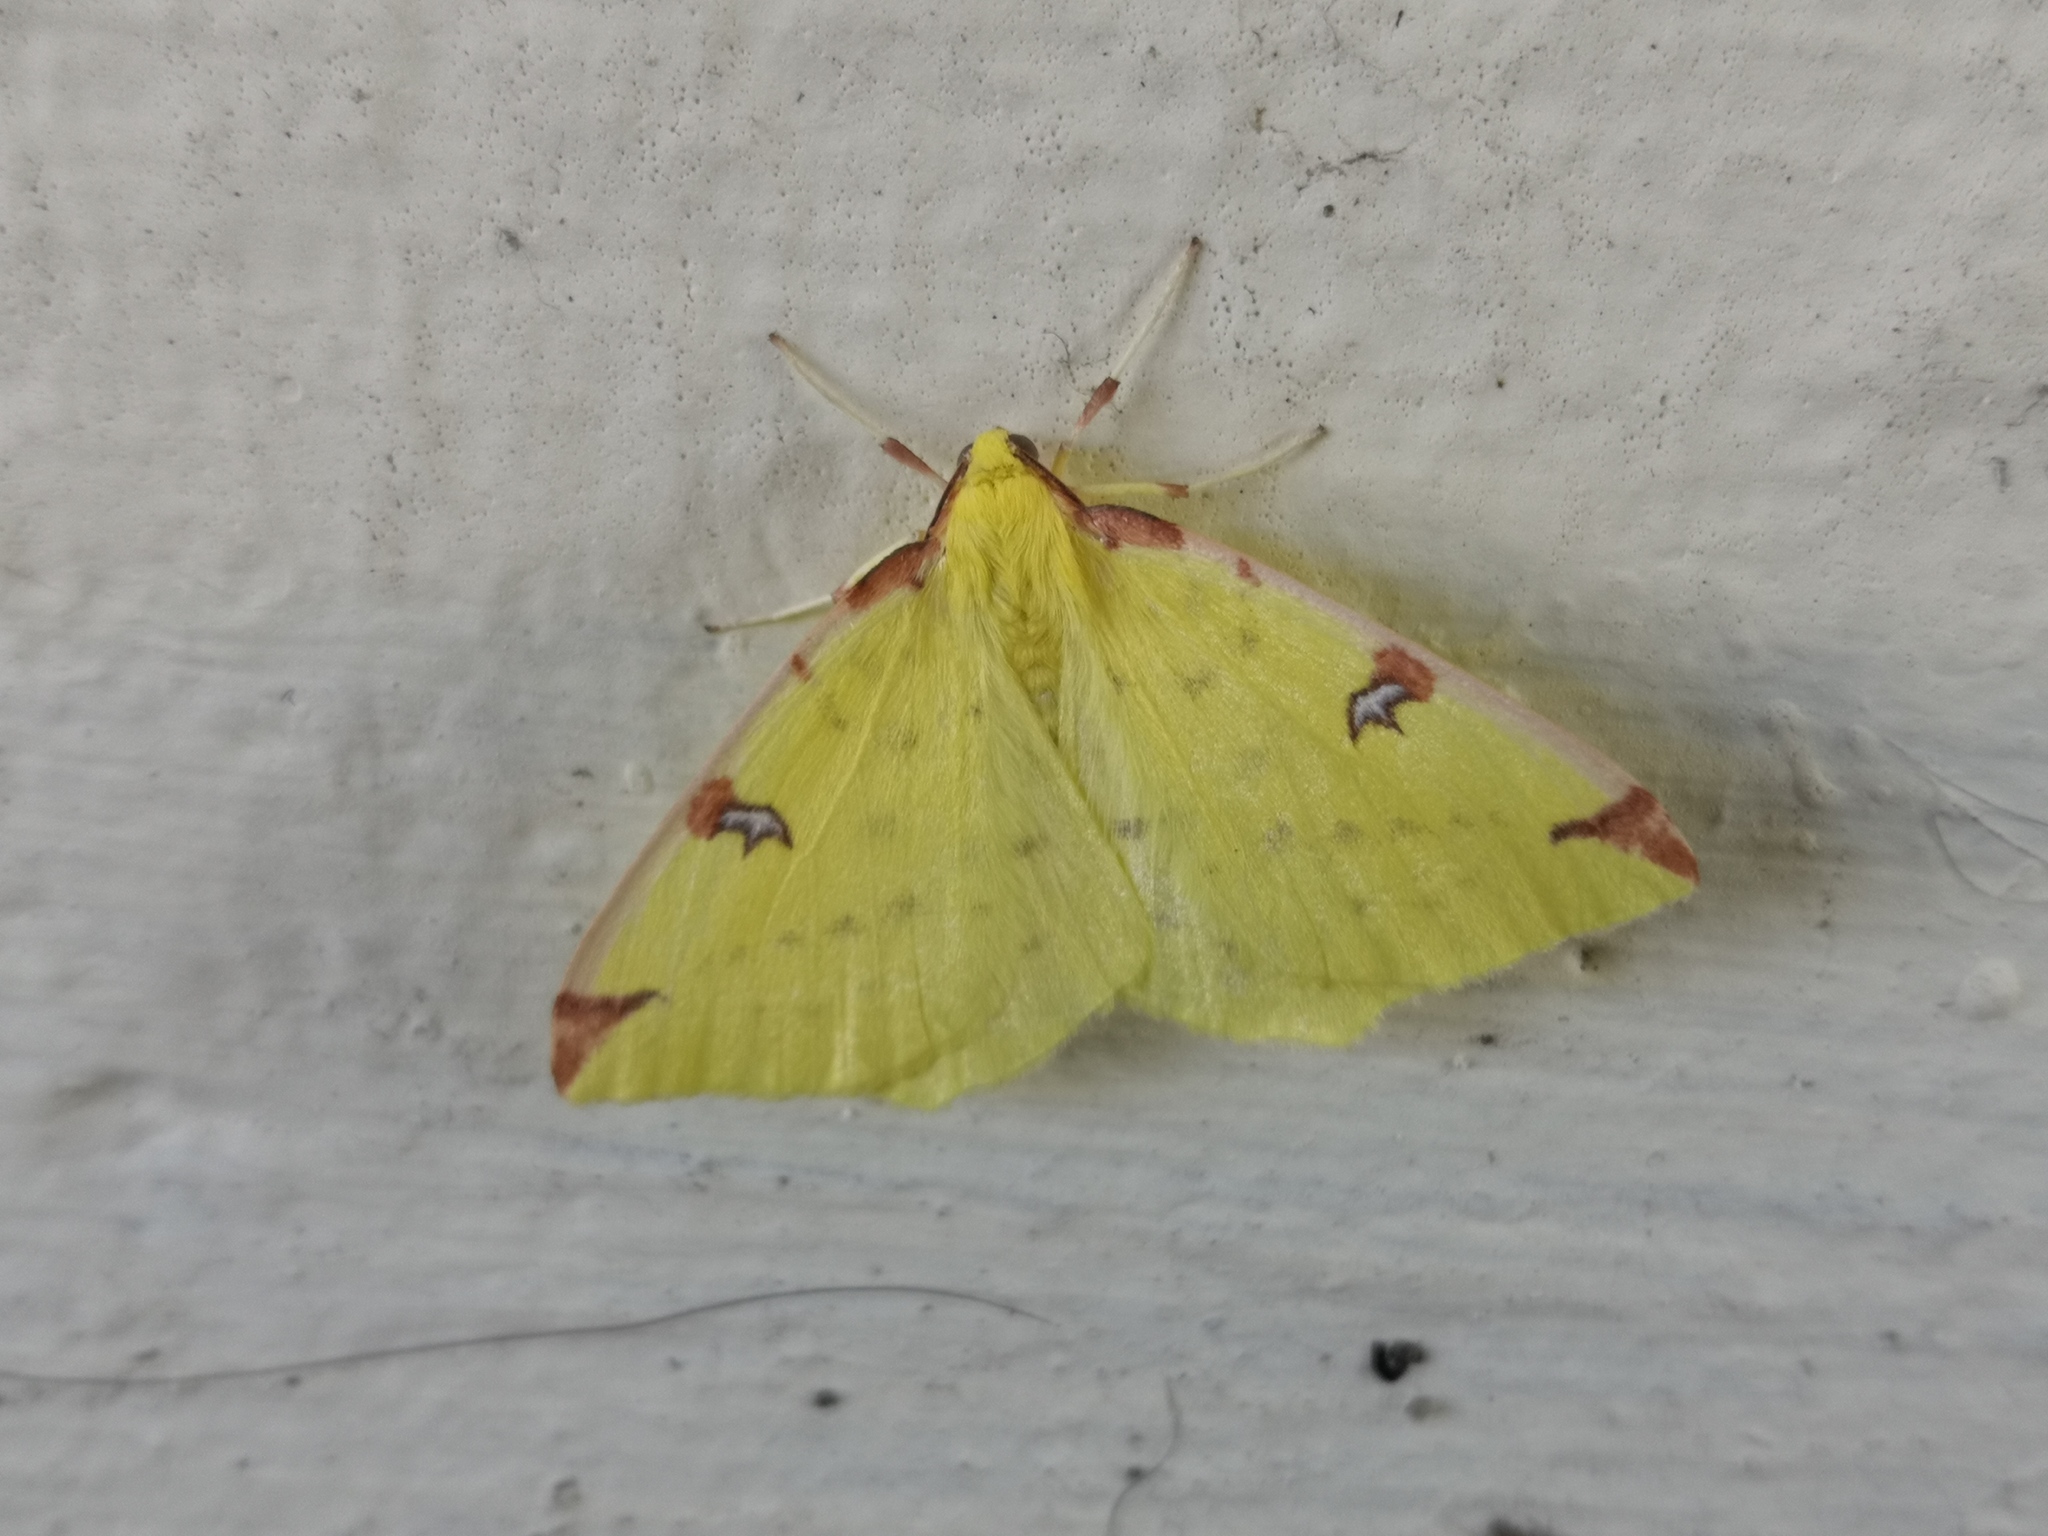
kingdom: Animalia
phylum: Arthropoda
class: Insecta
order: Lepidoptera
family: Geometridae
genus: Opisthograptis
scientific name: Opisthograptis luteolata
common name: Brimstone moth
